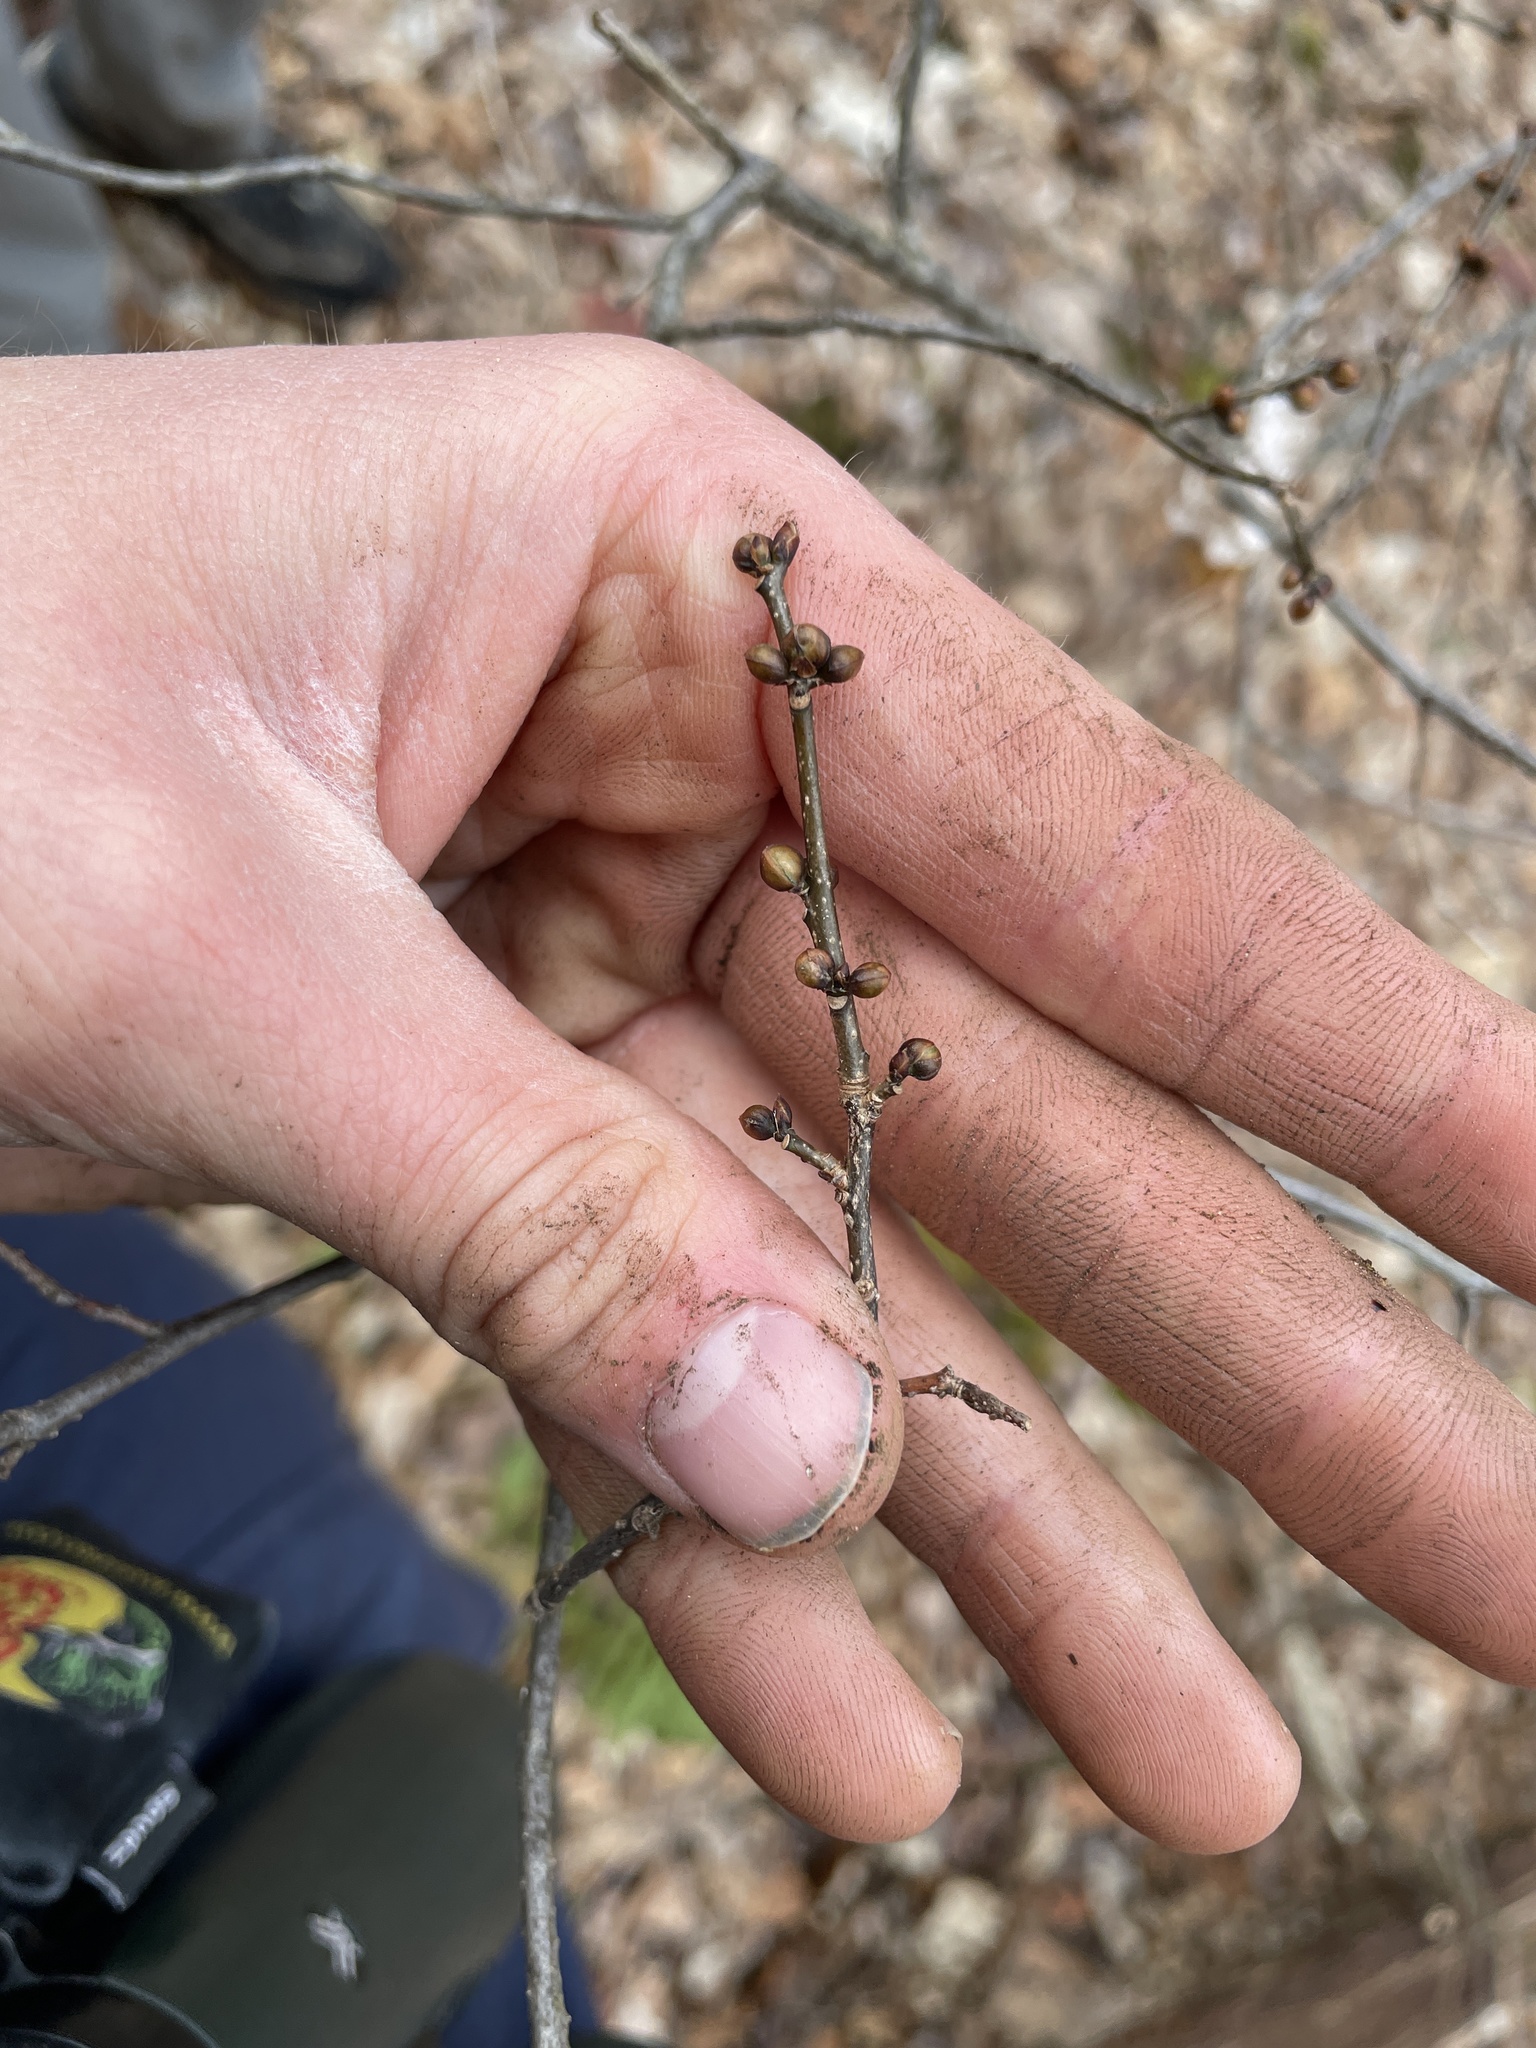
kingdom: Plantae
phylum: Tracheophyta
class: Magnoliopsida
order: Laurales
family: Lauraceae
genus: Lindera
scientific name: Lindera benzoin
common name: Spicebush
